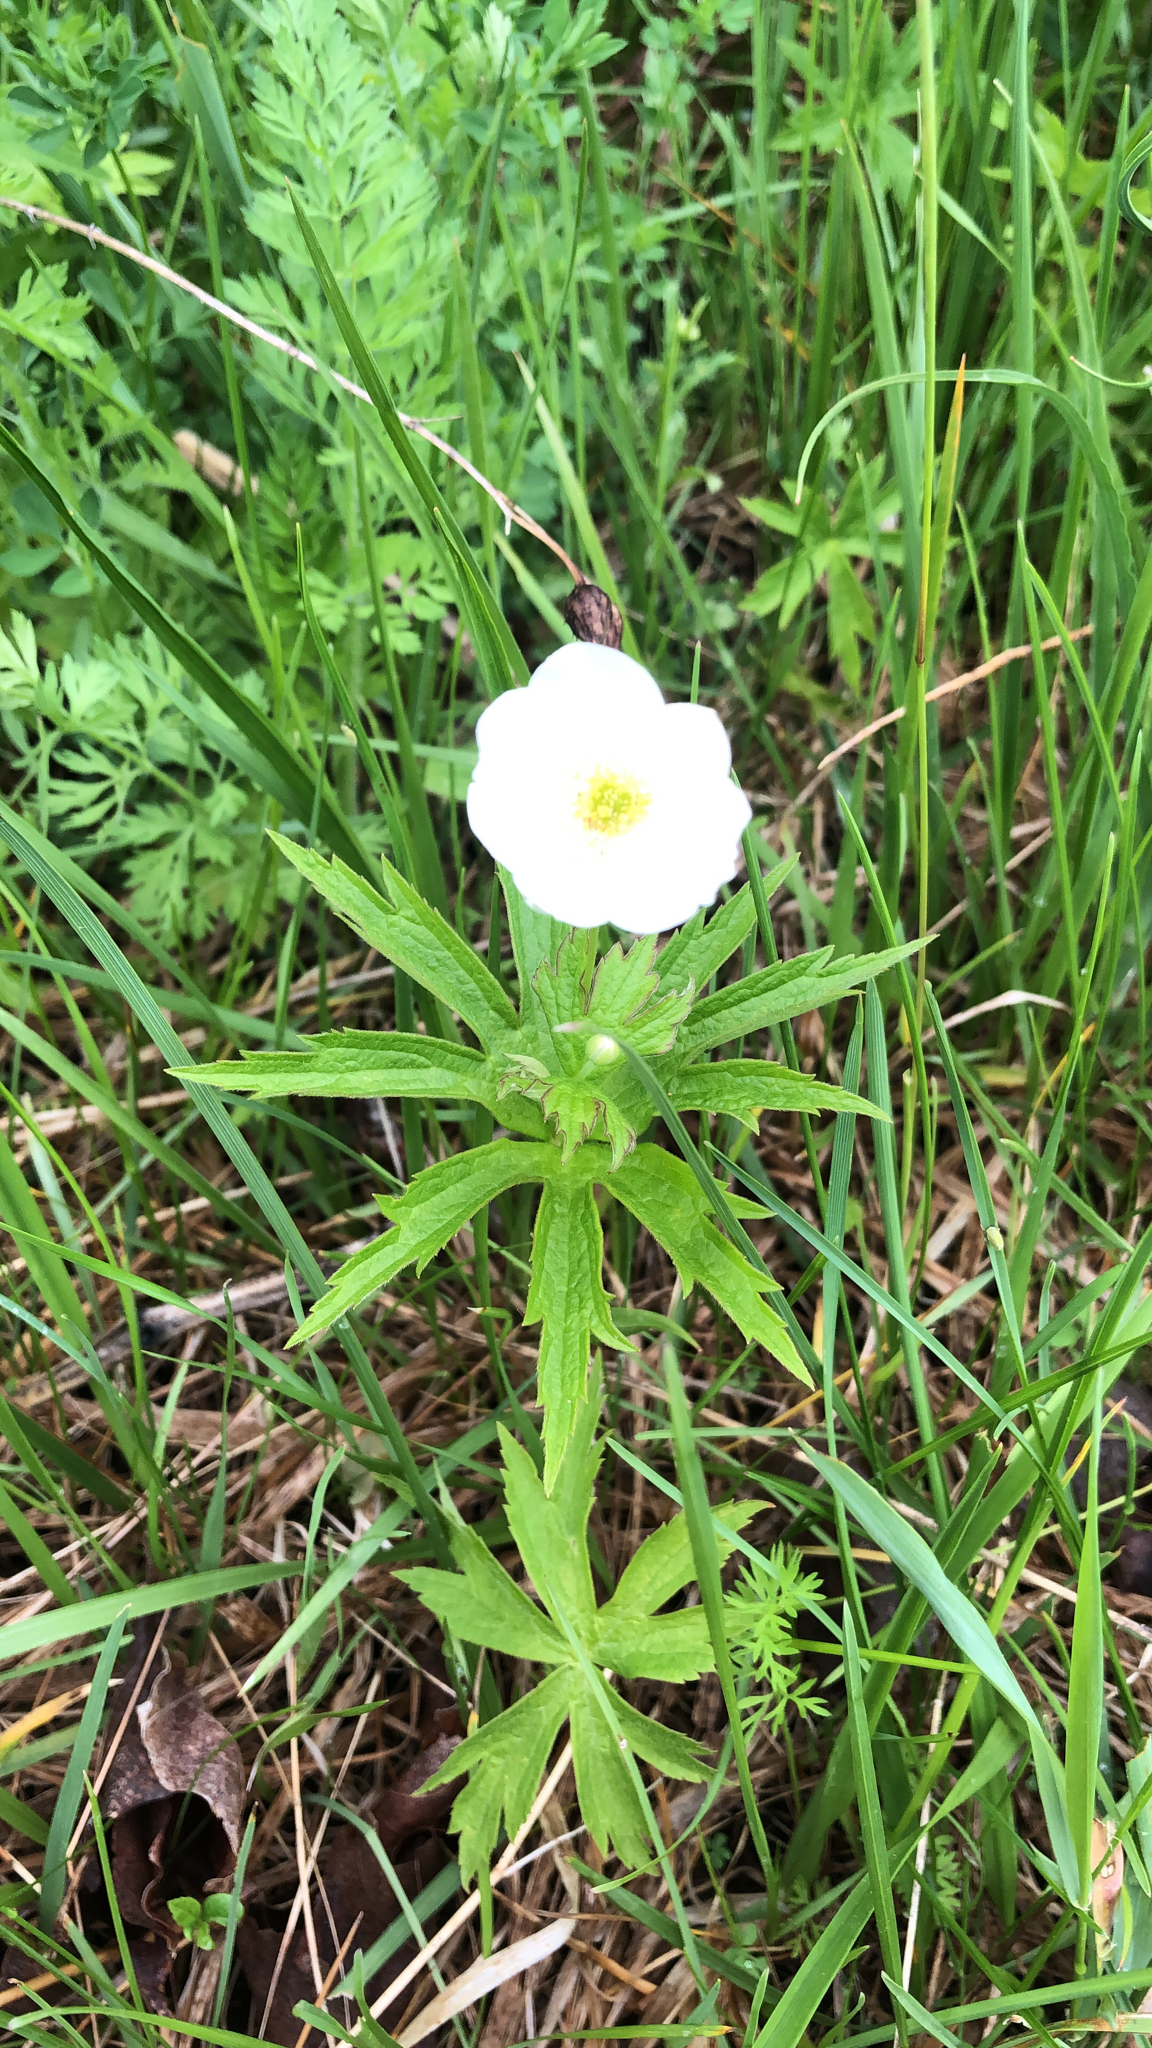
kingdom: Plantae
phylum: Tracheophyta
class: Magnoliopsida
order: Ranunculales
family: Ranunculaceae
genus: Anemonastrum
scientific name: Anemonastrum canadense
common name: Canada anemone
